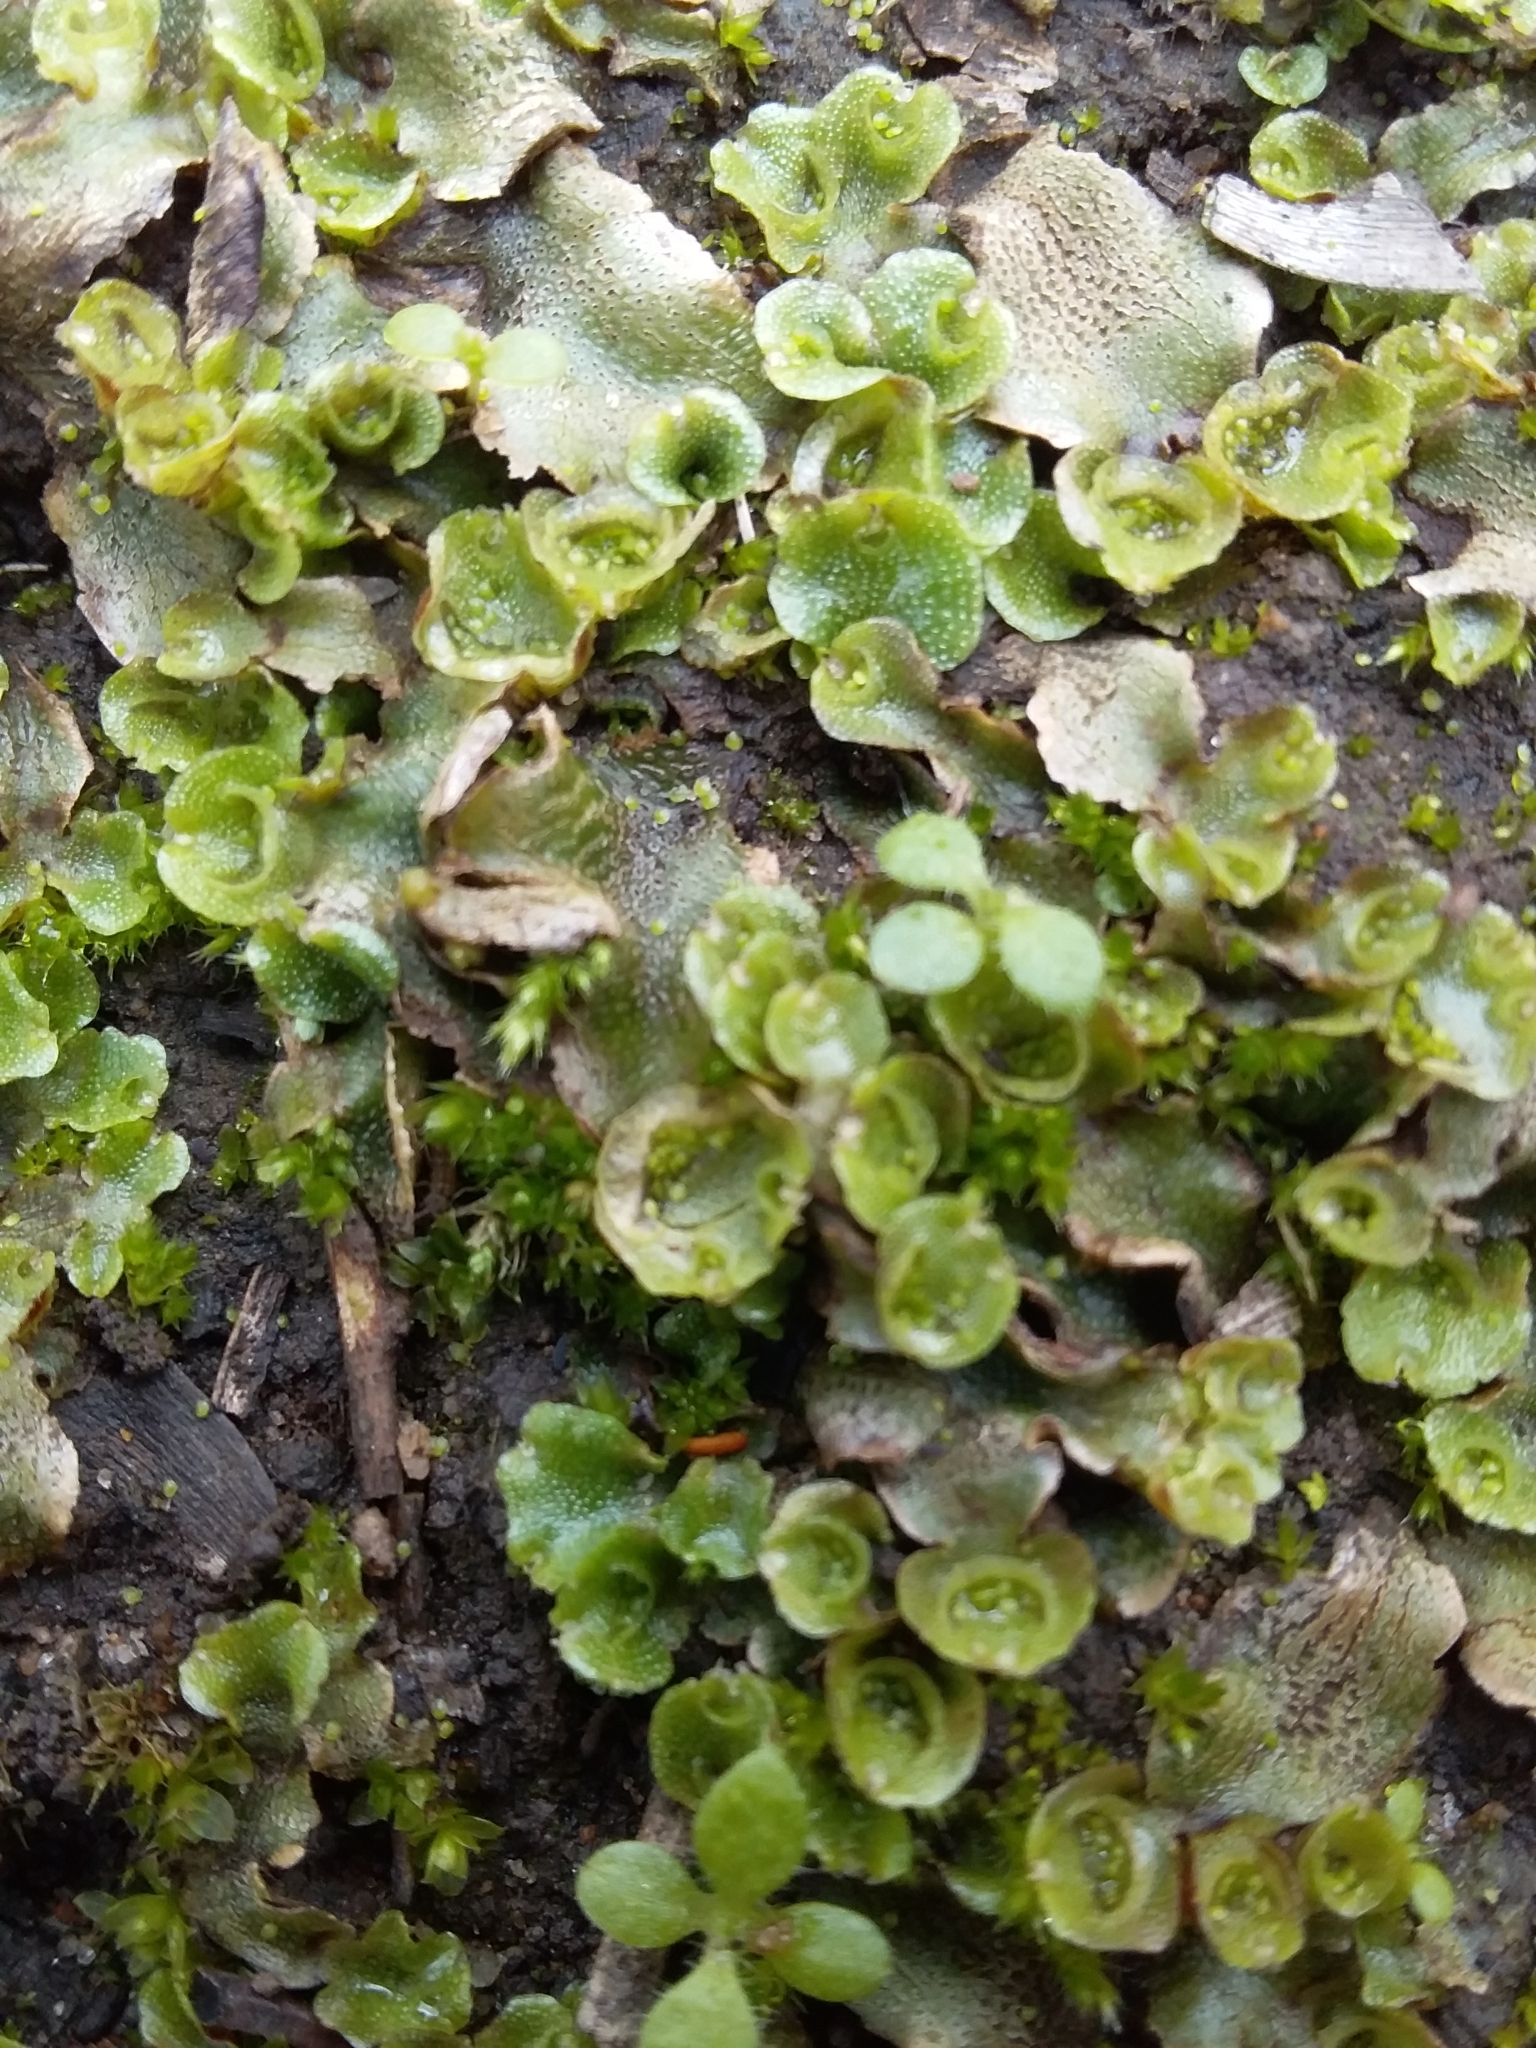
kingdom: Plantae
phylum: Marchantiophyta
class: Marchantiopsida
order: Lunulariales
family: Lunulariaceae
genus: Lunularia
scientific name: Lunularia cruciata
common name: Crescent-cup liverwort
